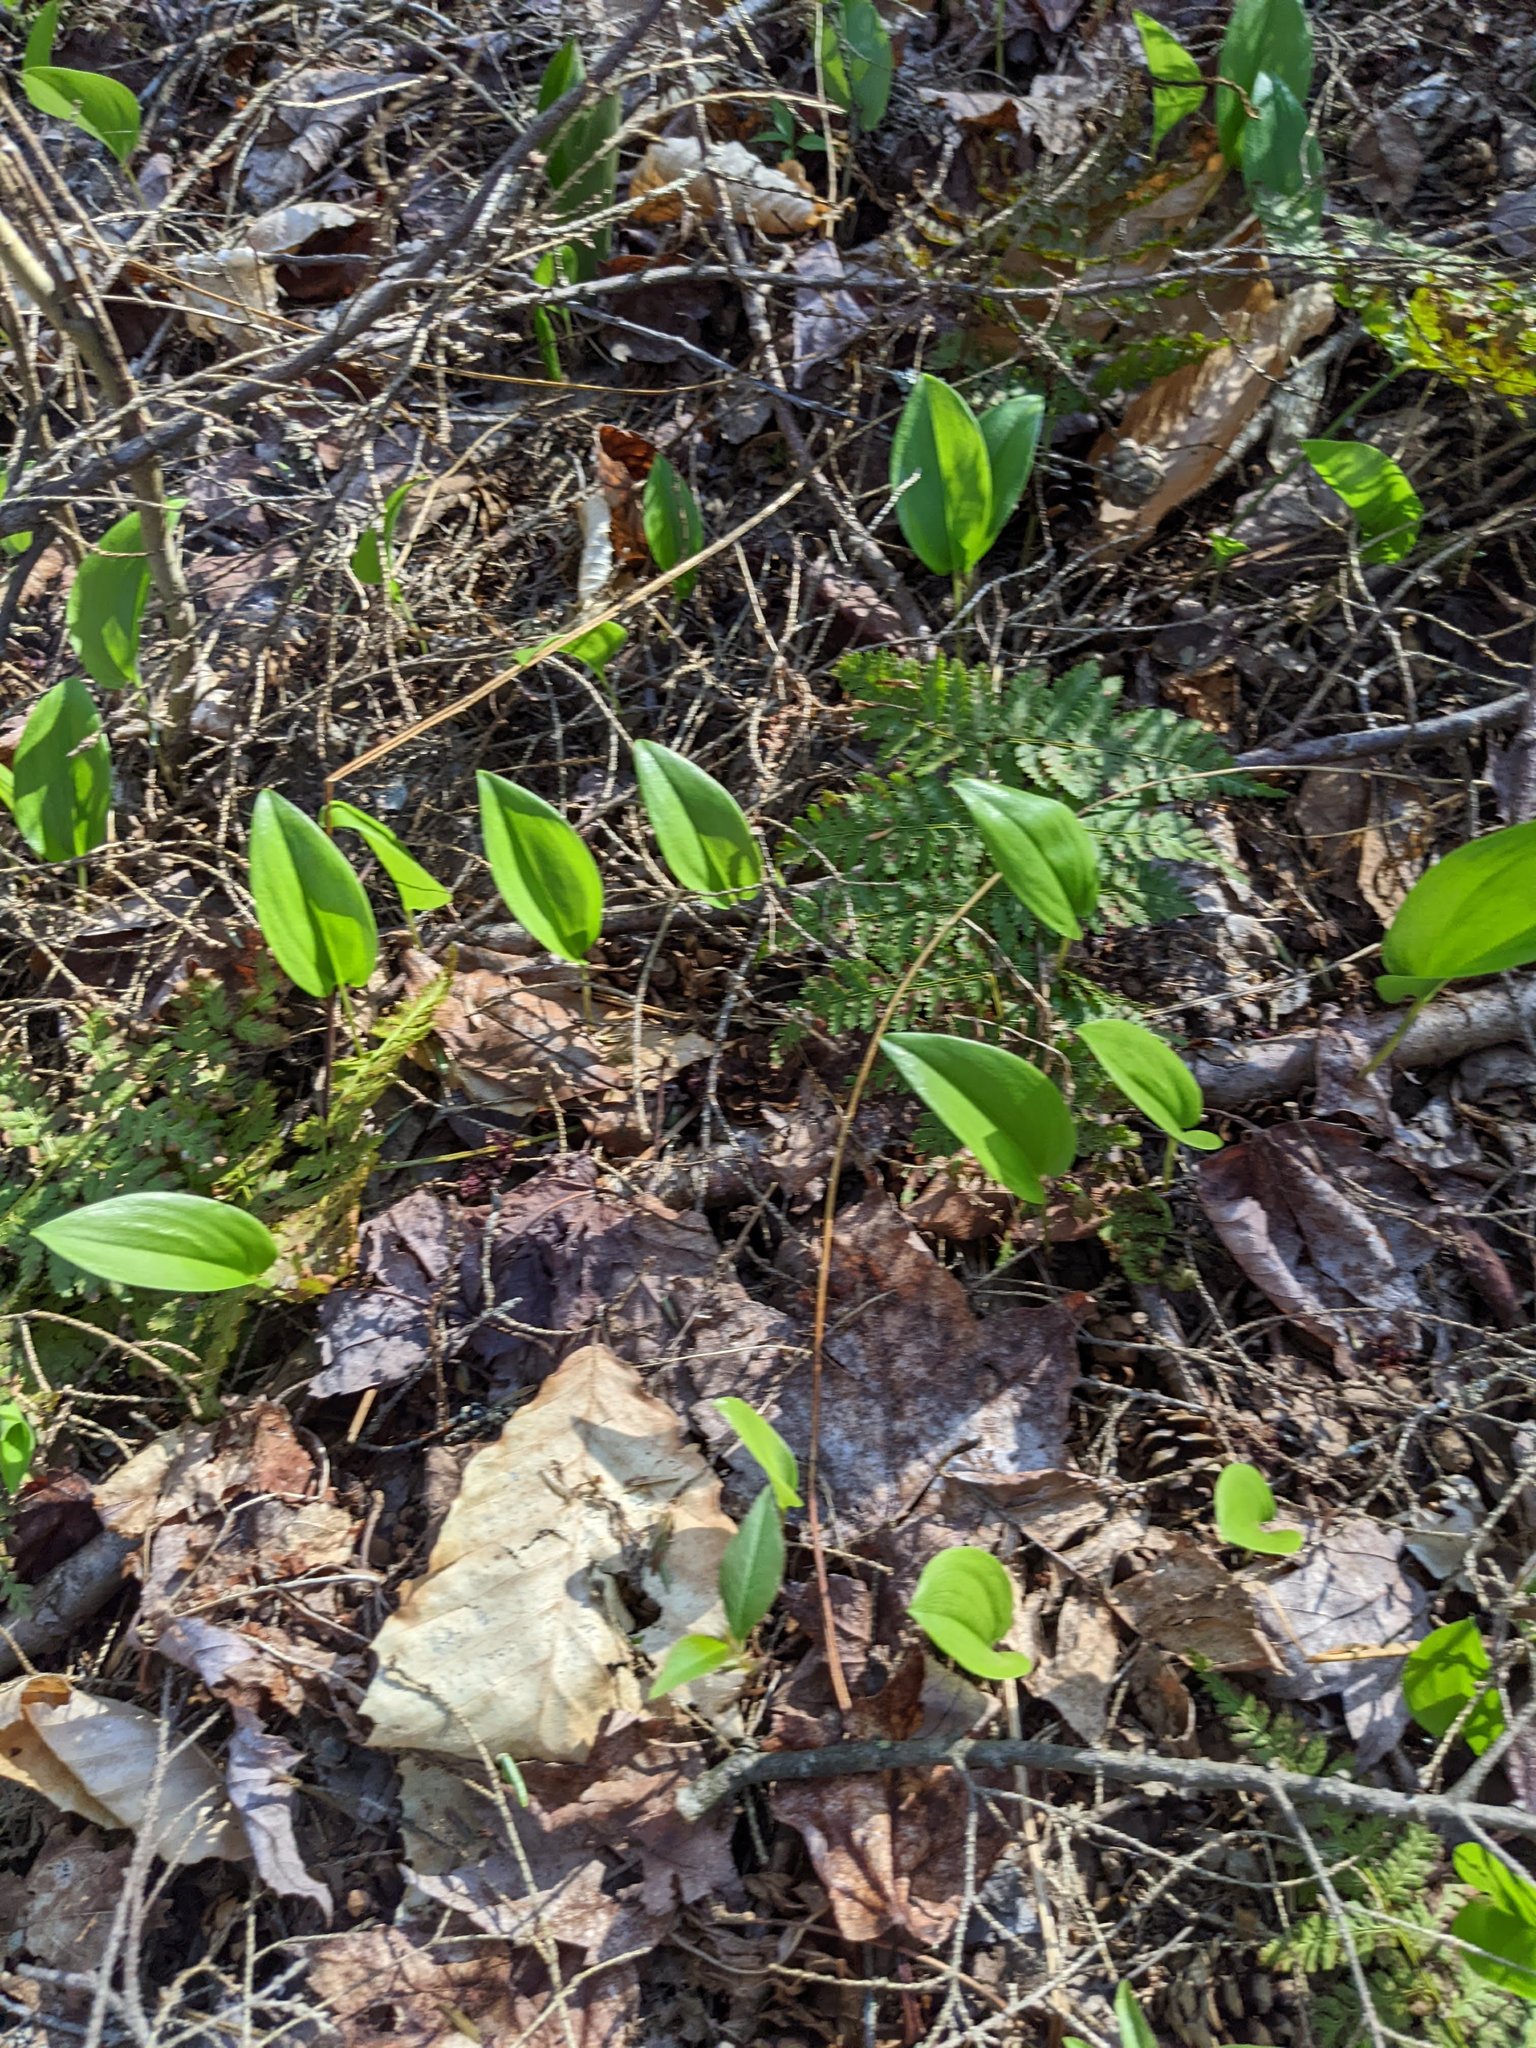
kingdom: Plantae
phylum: Tracheophyta
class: Liliopsida
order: Asparagales
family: Asparagaceae
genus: Maianthemum
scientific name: Maianthemum canadense
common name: False lily-of-the-valley
